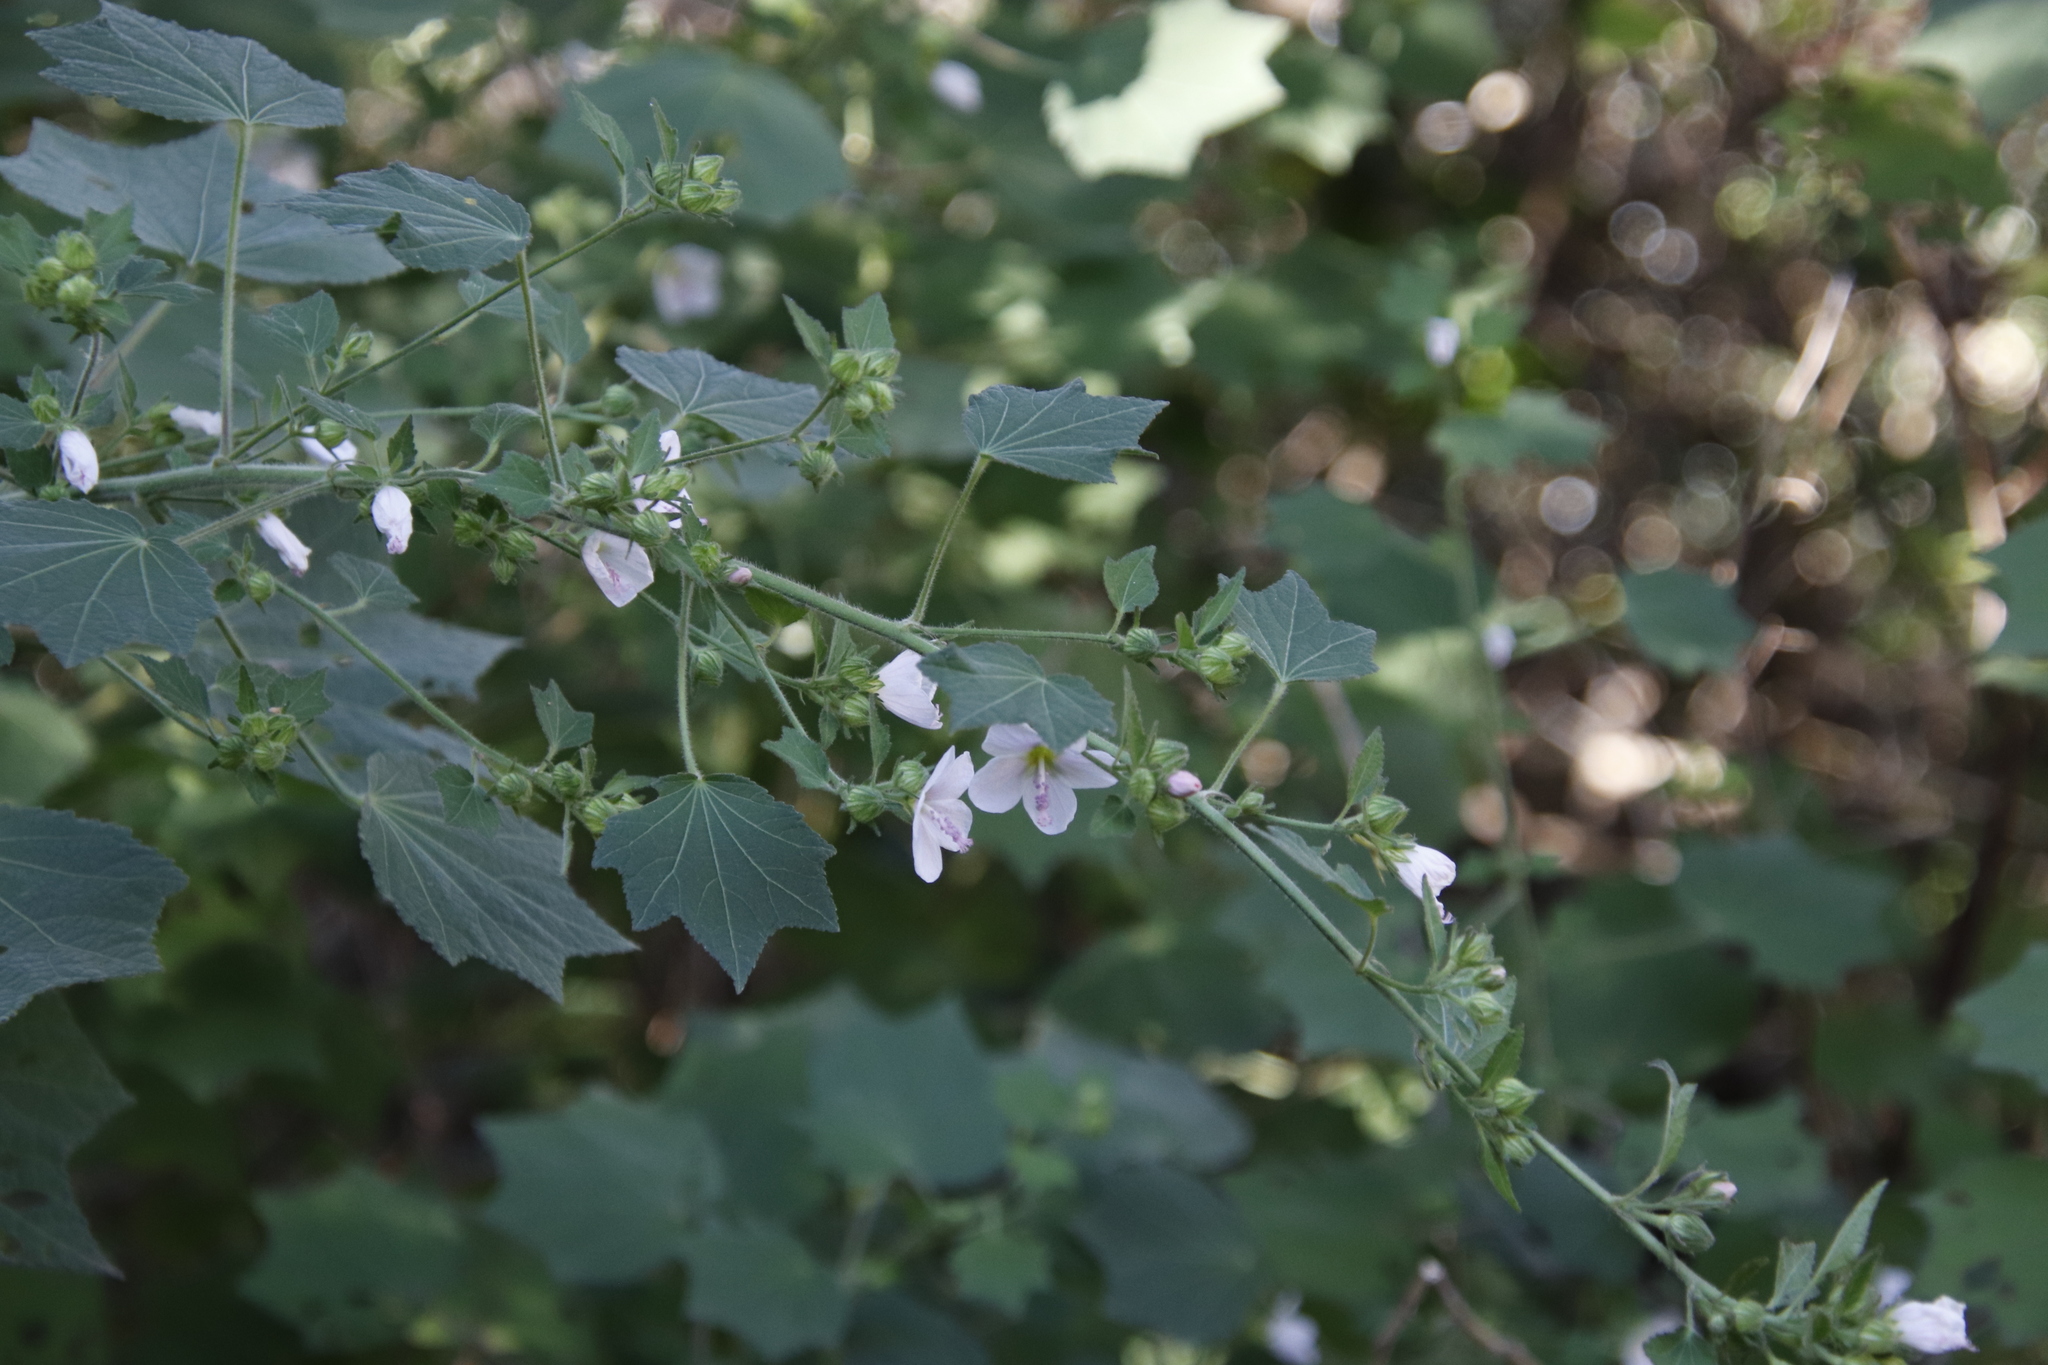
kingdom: Plantae
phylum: Tracheophyta
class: Magnoliopsida
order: Malvales
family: Malvaceae
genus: Pavonia
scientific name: Pavonia columella
